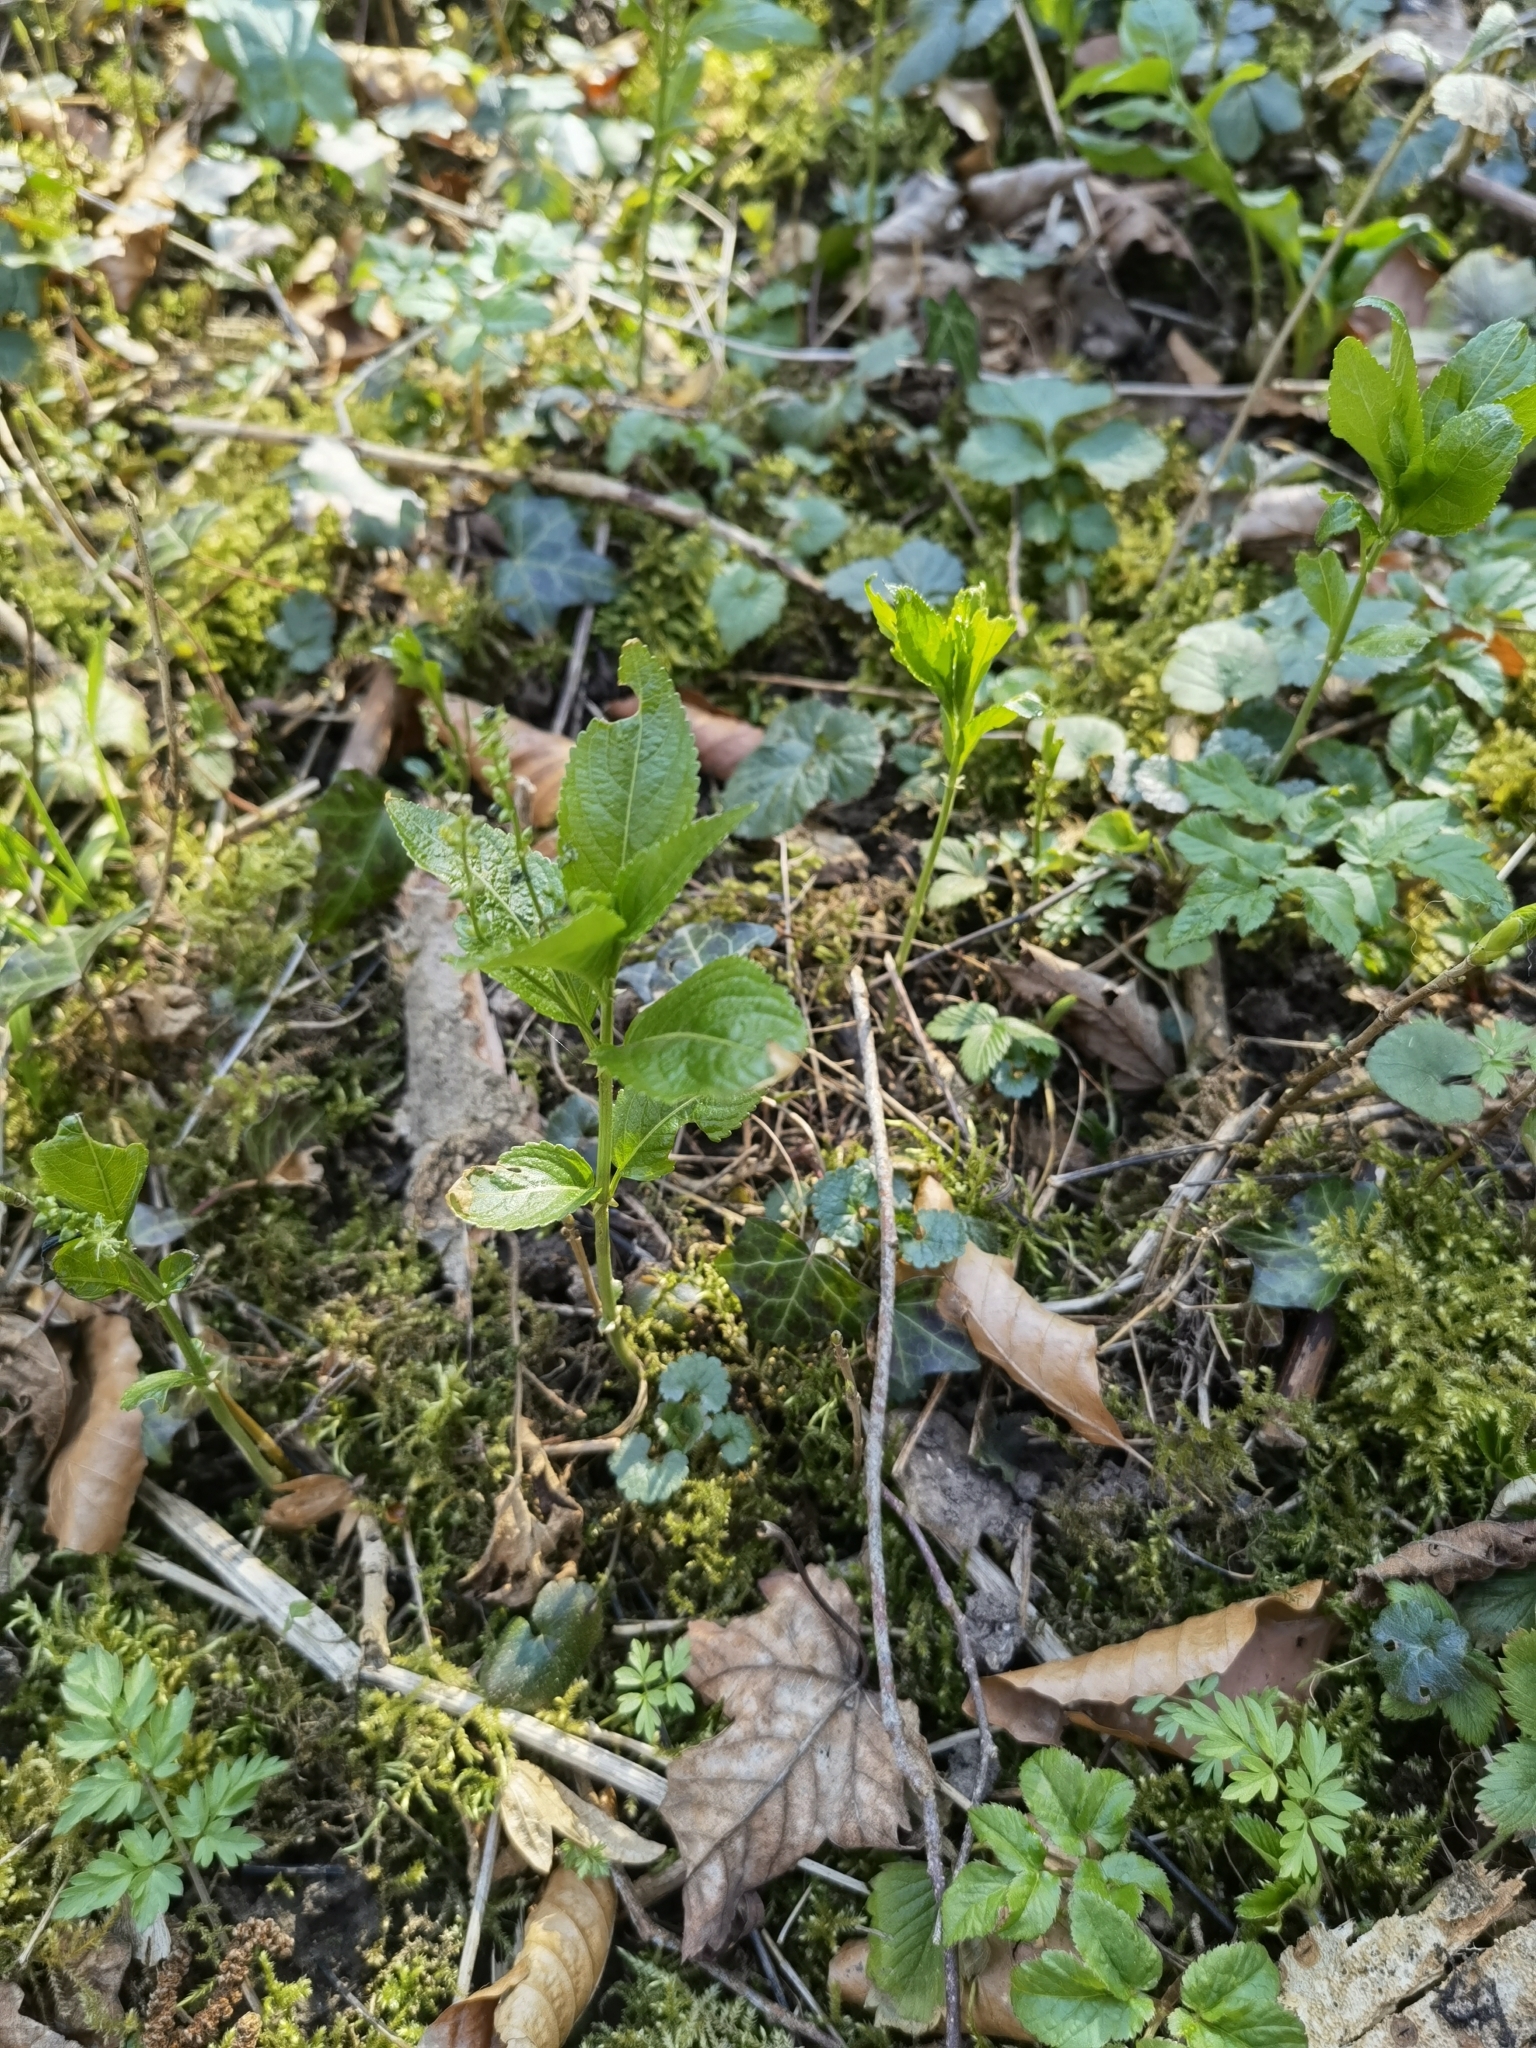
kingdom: Plantae
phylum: Tracheophyta
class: Magnoliopsida
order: Malpighiales
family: Euphorbiaceae
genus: Mercurialis
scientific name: Mercurialis perennis
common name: Dog mercury
